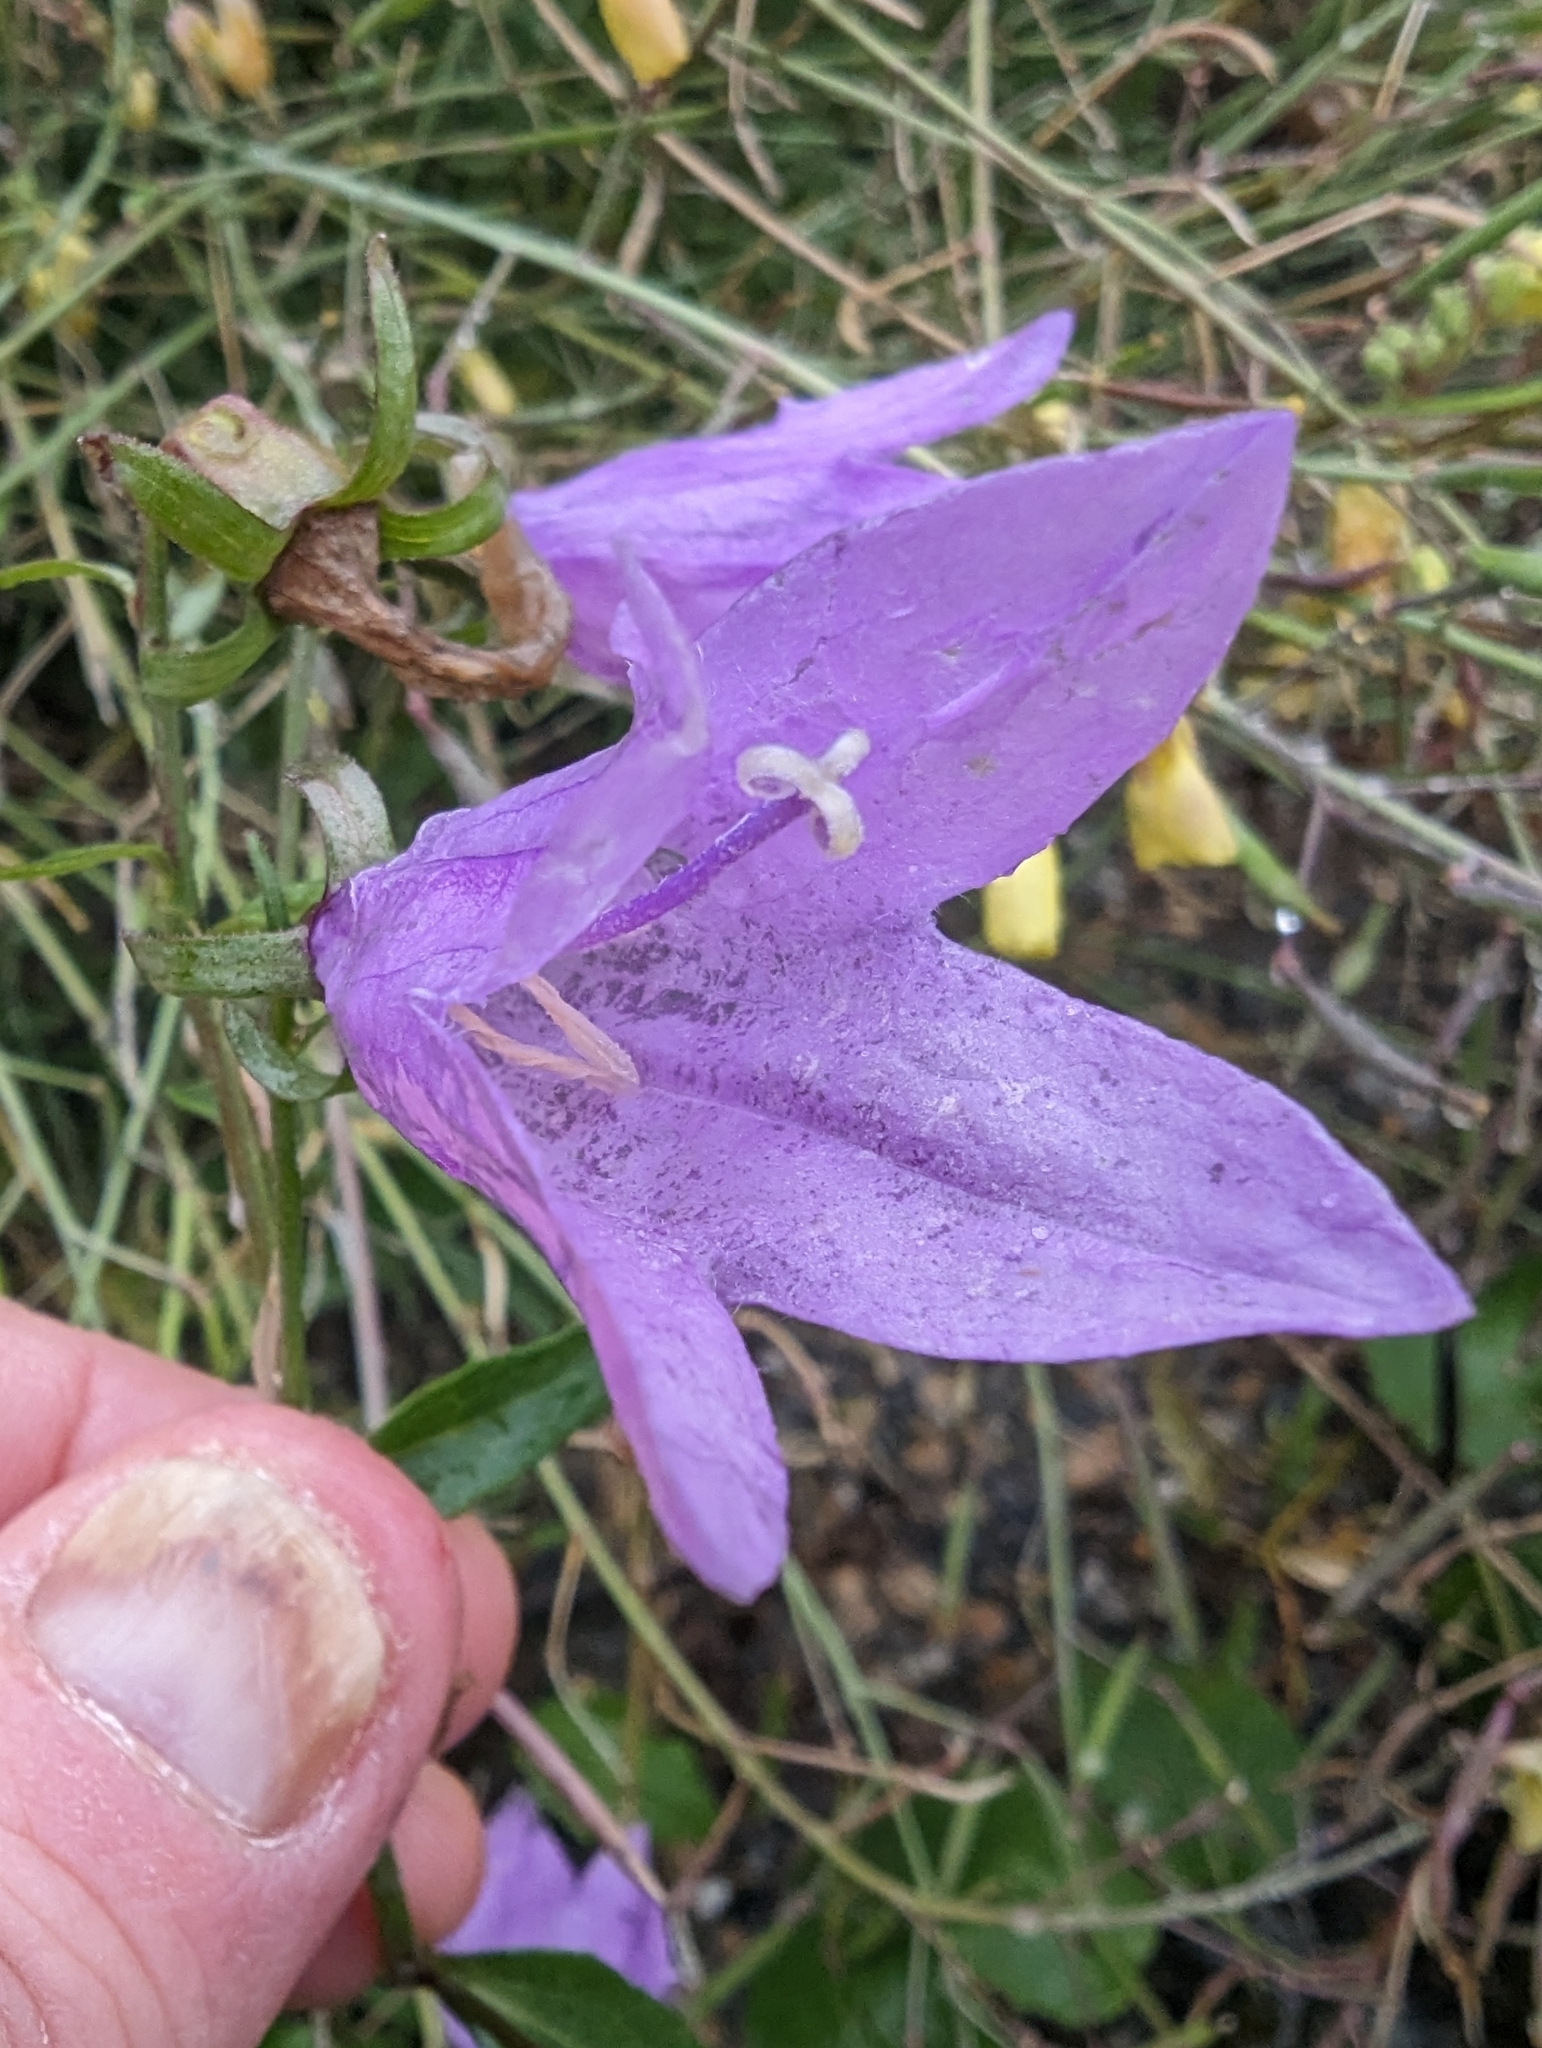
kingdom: Plantae
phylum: Tracheophyta
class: Magnoliopsida
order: Asterales
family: Campanulaceae
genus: Campanula
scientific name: Campanula rapunculoides
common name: Creeping bellflower
